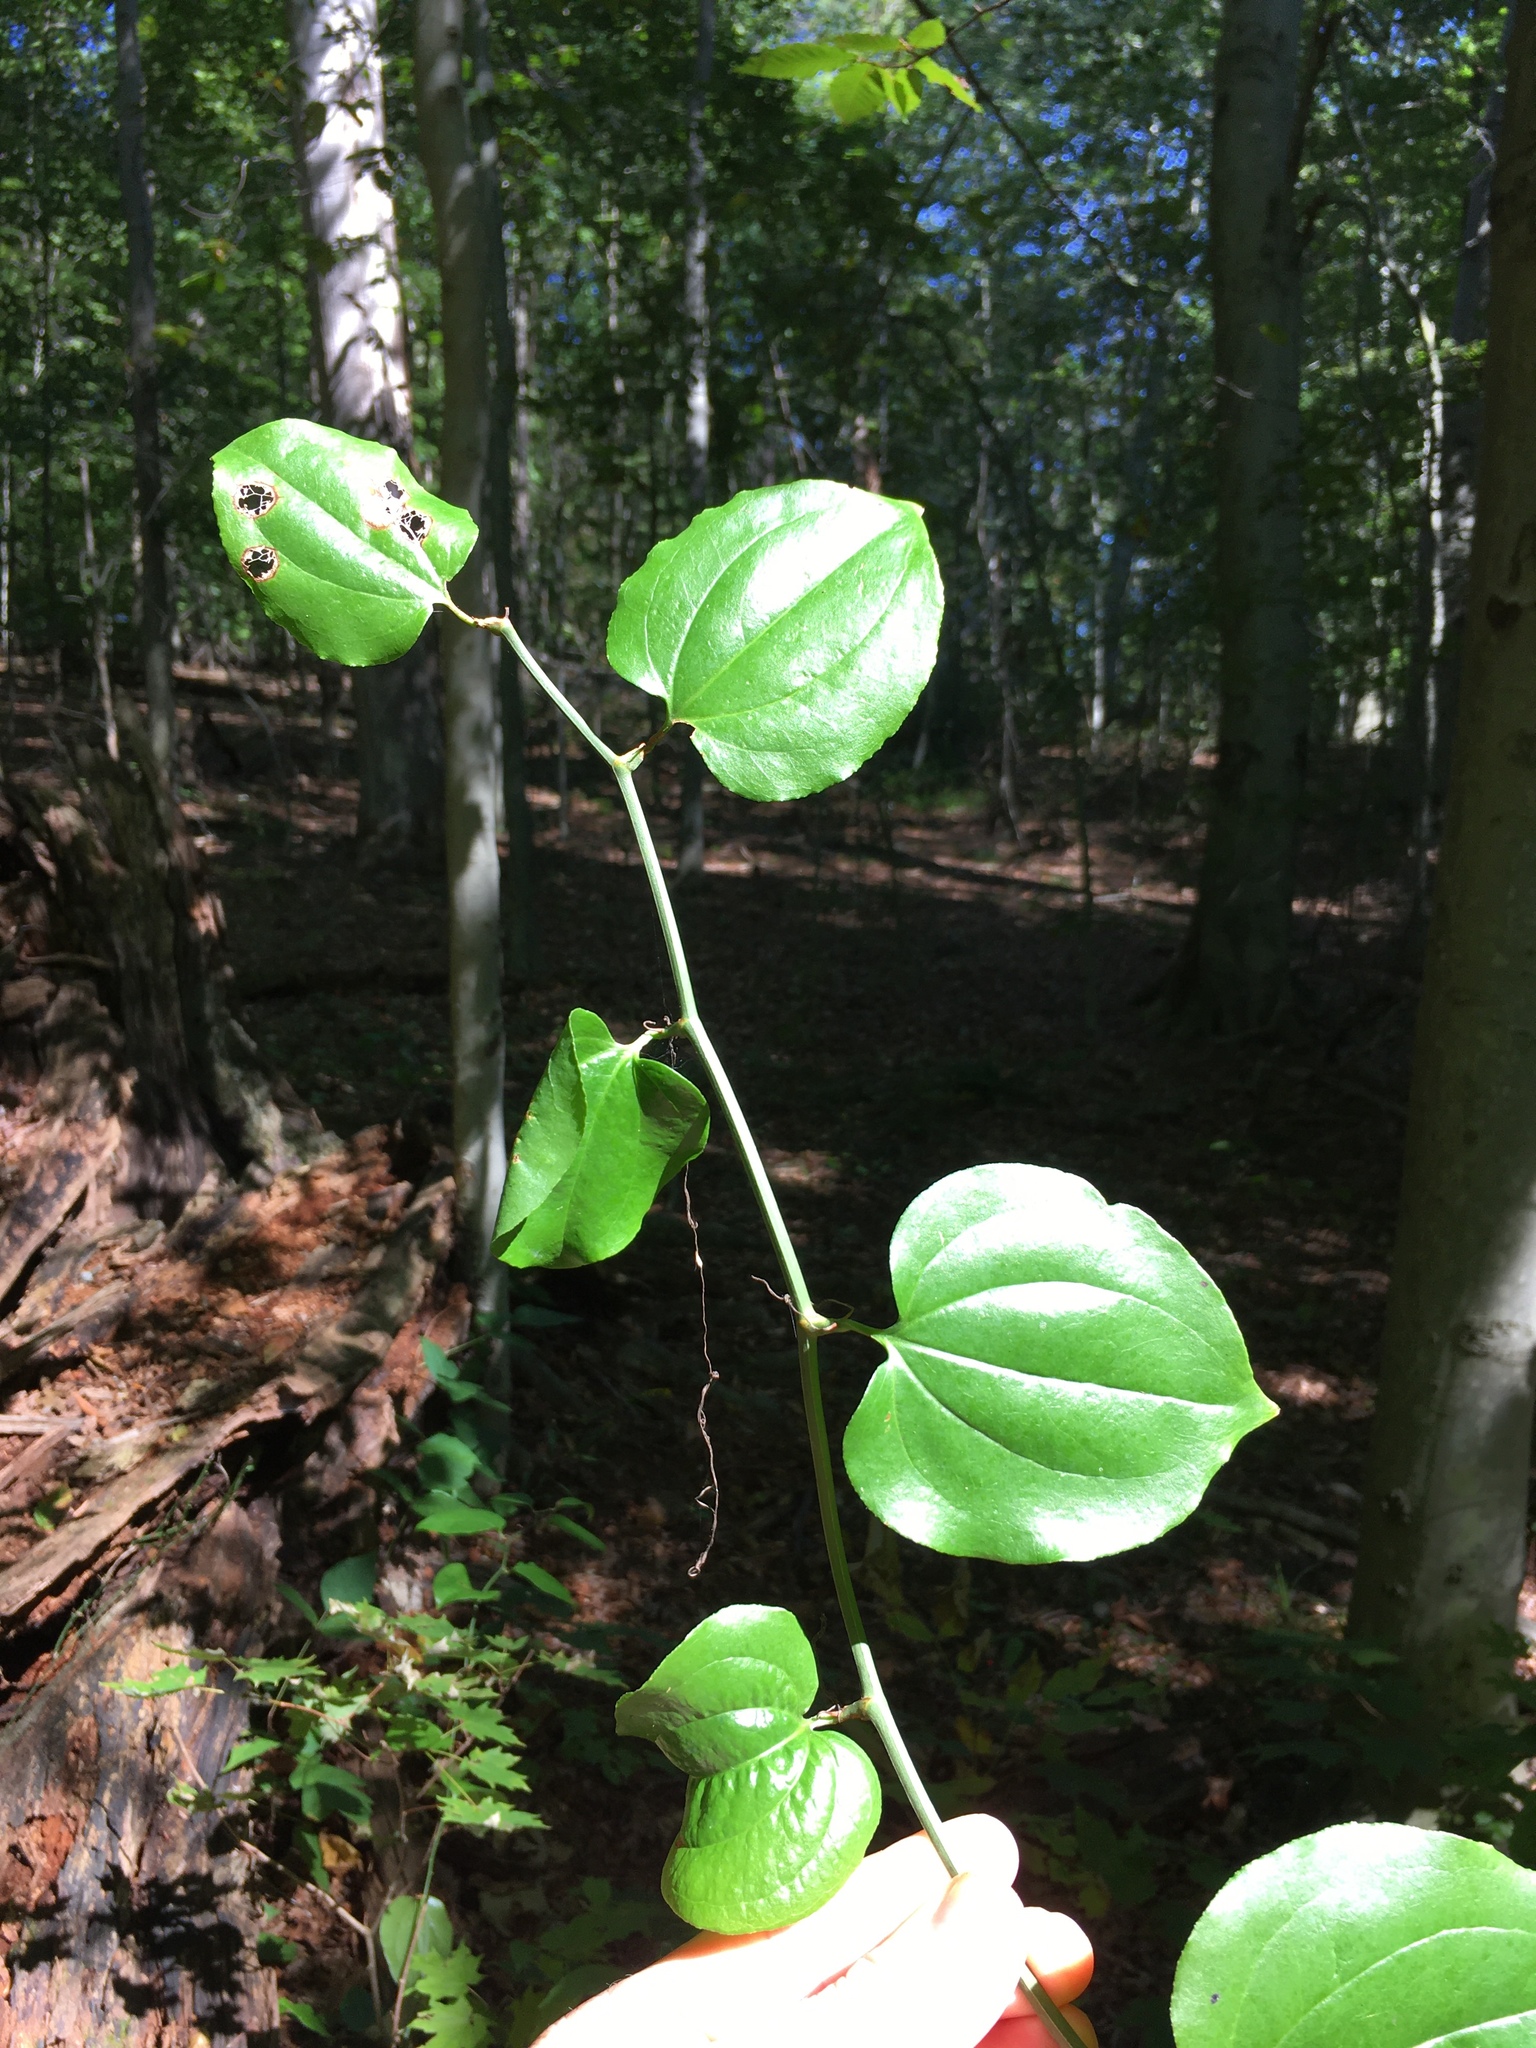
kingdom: Plantae
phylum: Tracheophyta
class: Liliopsida
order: Liliales
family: Smilacaceae
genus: Smilax
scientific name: Smilax rotundifolia
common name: Bullbriar
